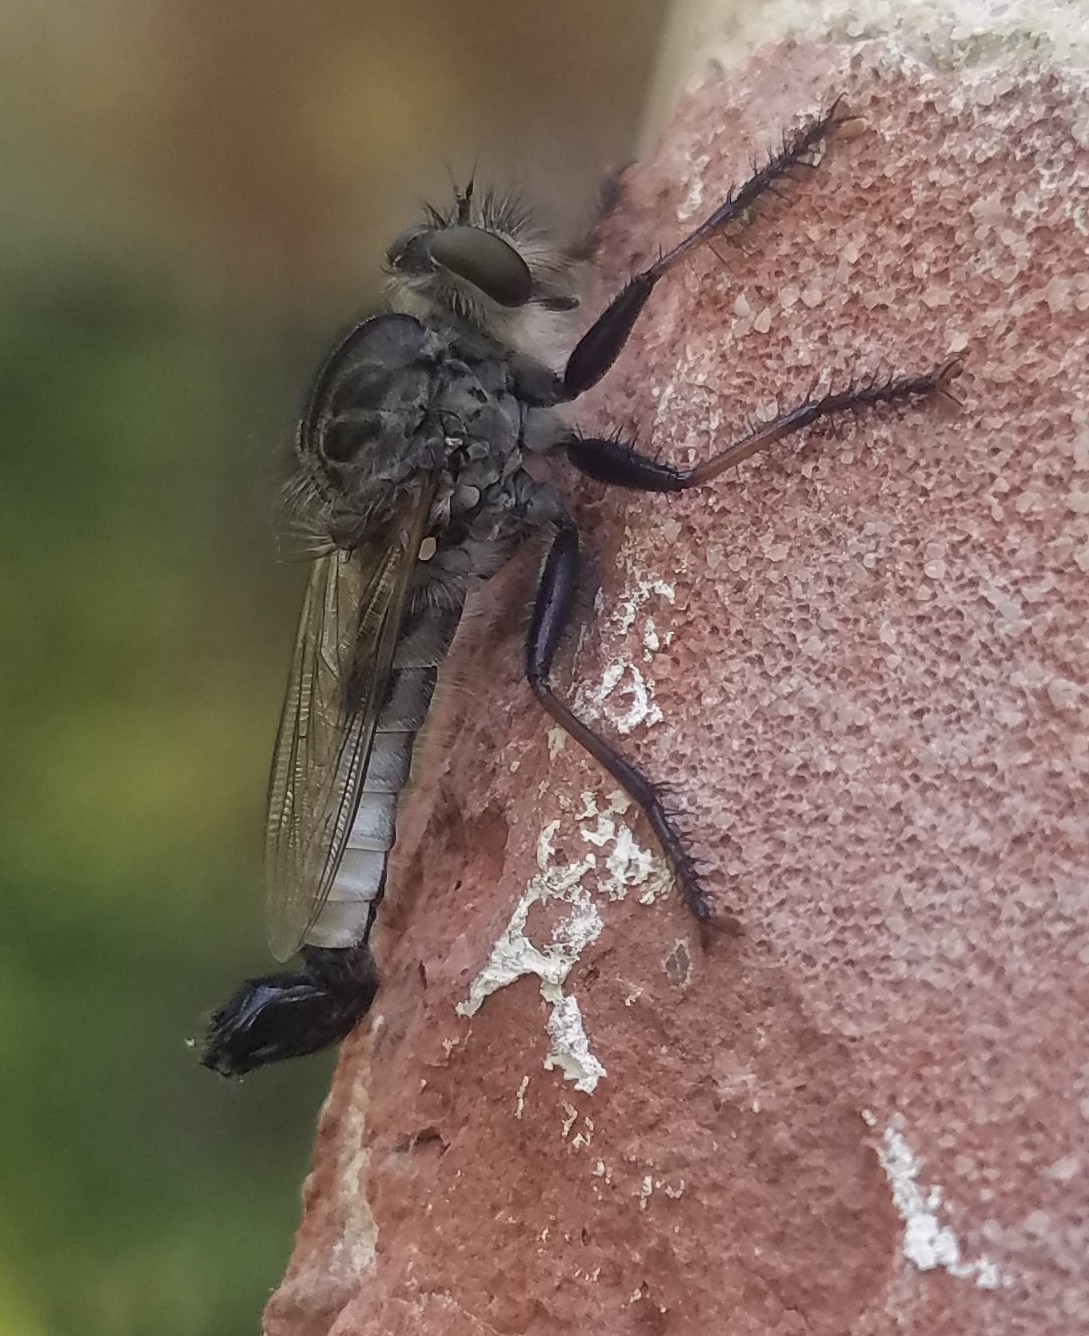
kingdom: Animalia
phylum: Arthropoda
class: Insecta
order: Diptera
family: Asilidae
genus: Efferia
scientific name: Efferia aestuans
